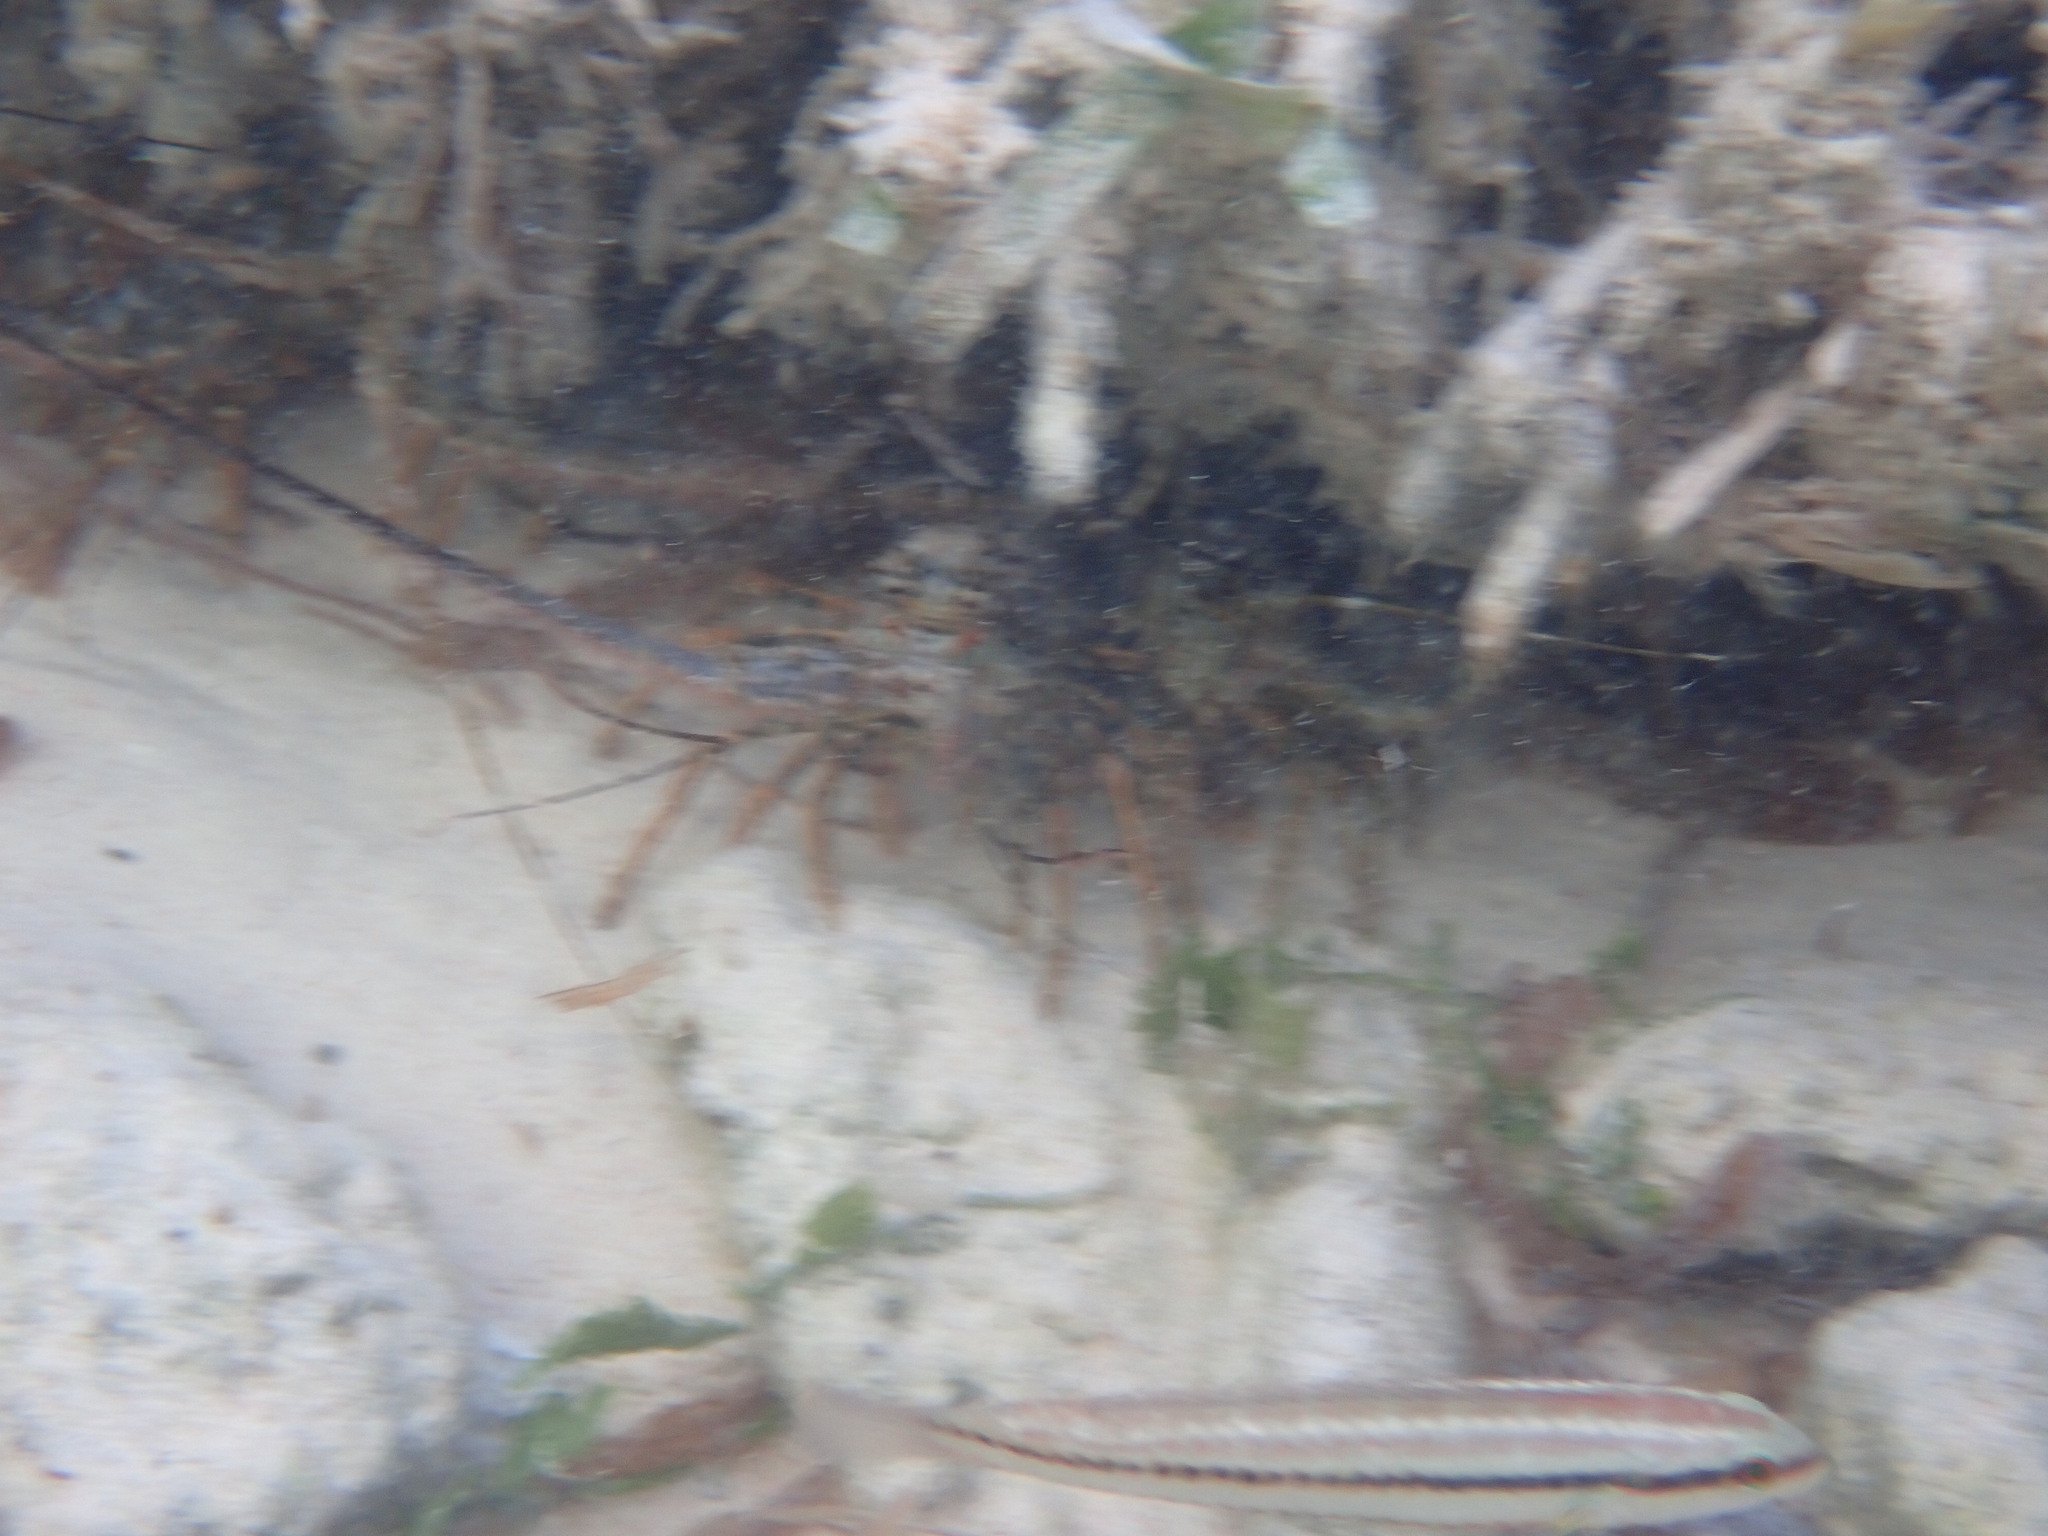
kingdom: Animalia
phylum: Chordata
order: Perciformes
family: Labridae
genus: Halichoeres
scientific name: Halichoeres bivittatus
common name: Slippery dick
